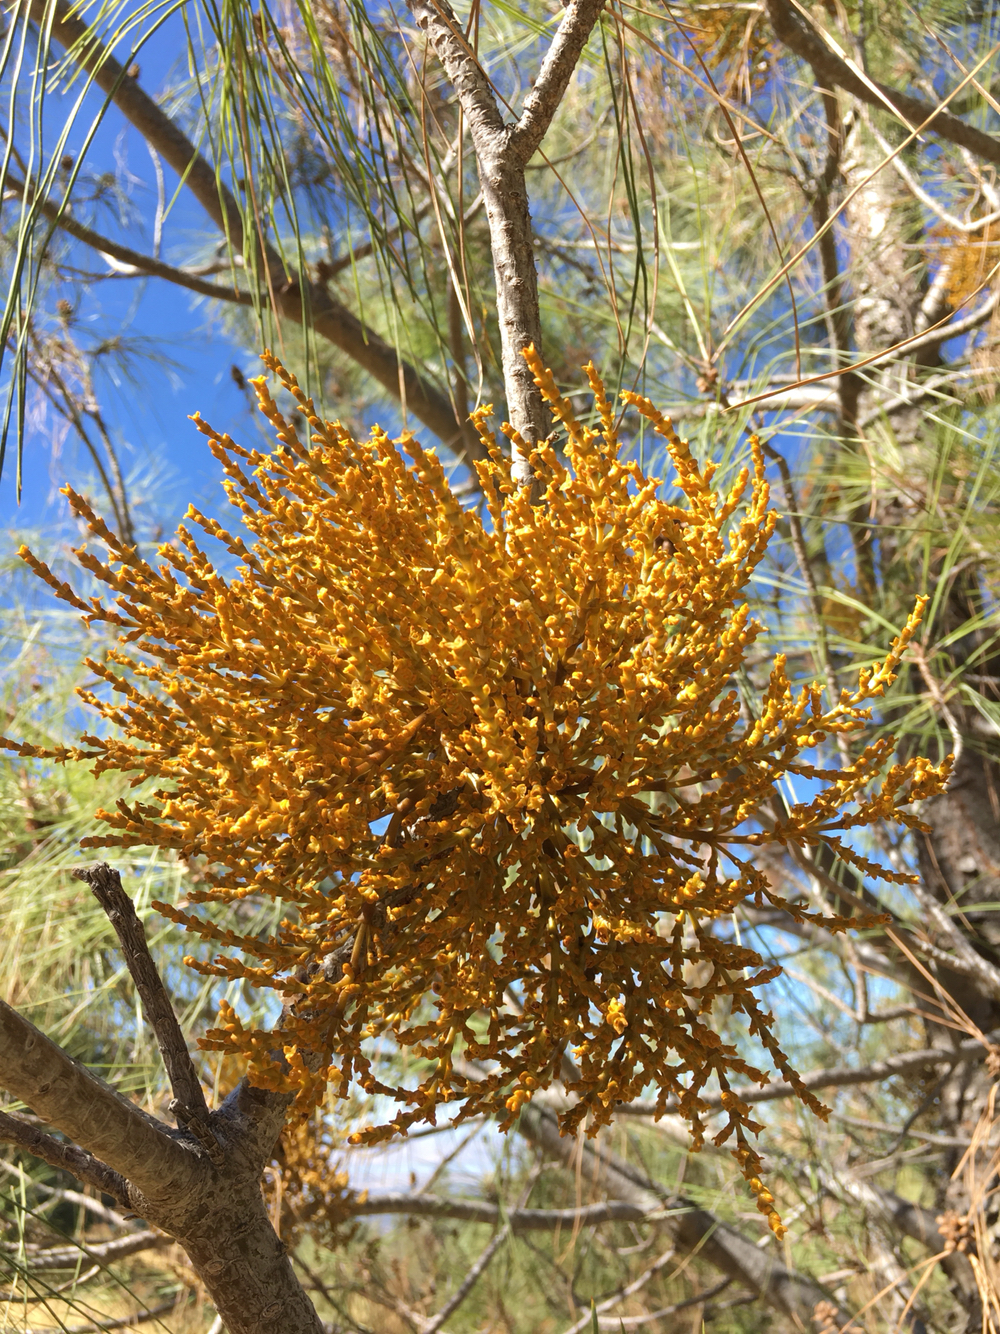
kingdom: Plantae
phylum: Tracheophyta
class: Magnoliopsida
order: Santalales
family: Viscaceae
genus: Arceuthobium
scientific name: Arceuthobium campylopodum
